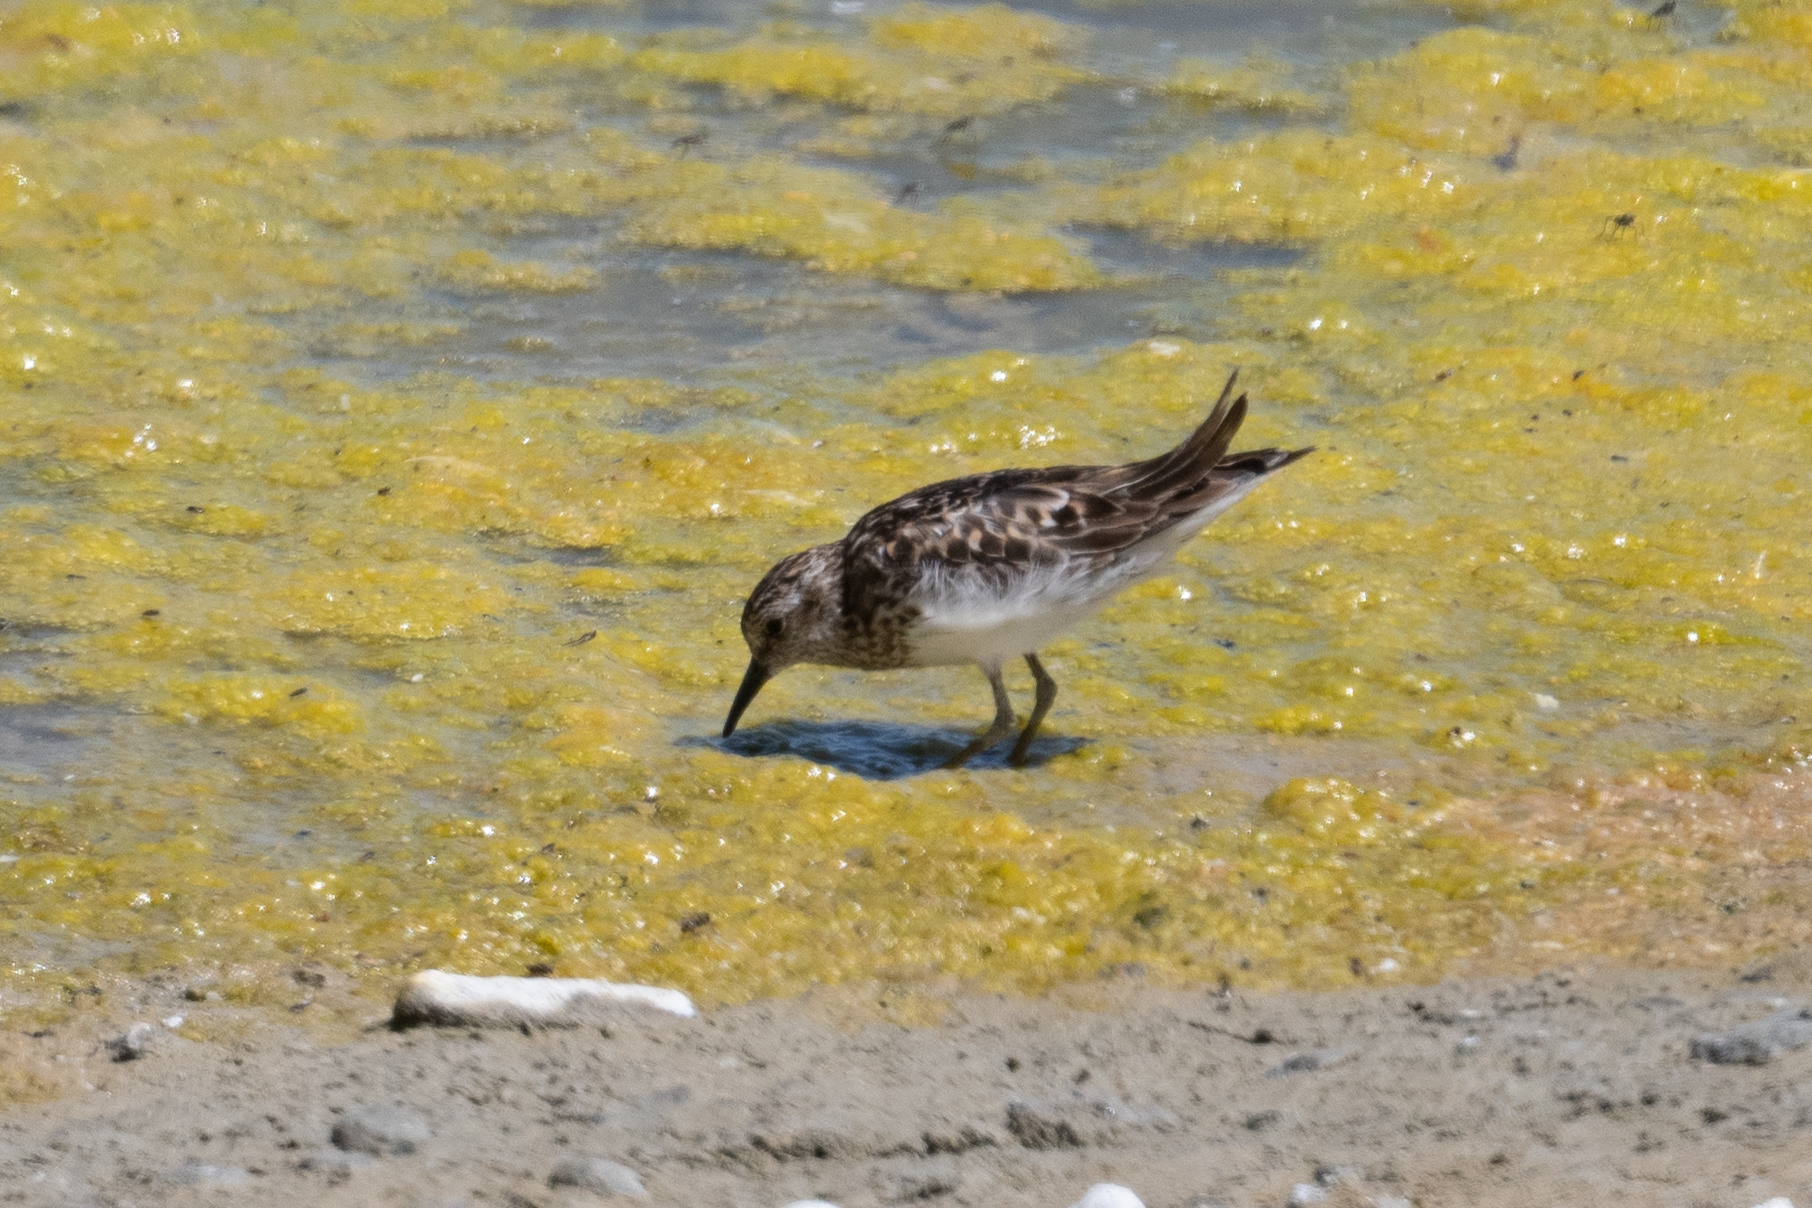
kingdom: Animalia
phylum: Chordata
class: Aves
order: Charadriiformes
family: Scolopacidae
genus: Calidris
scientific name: Calidris minutilla
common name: Least sandpiper
